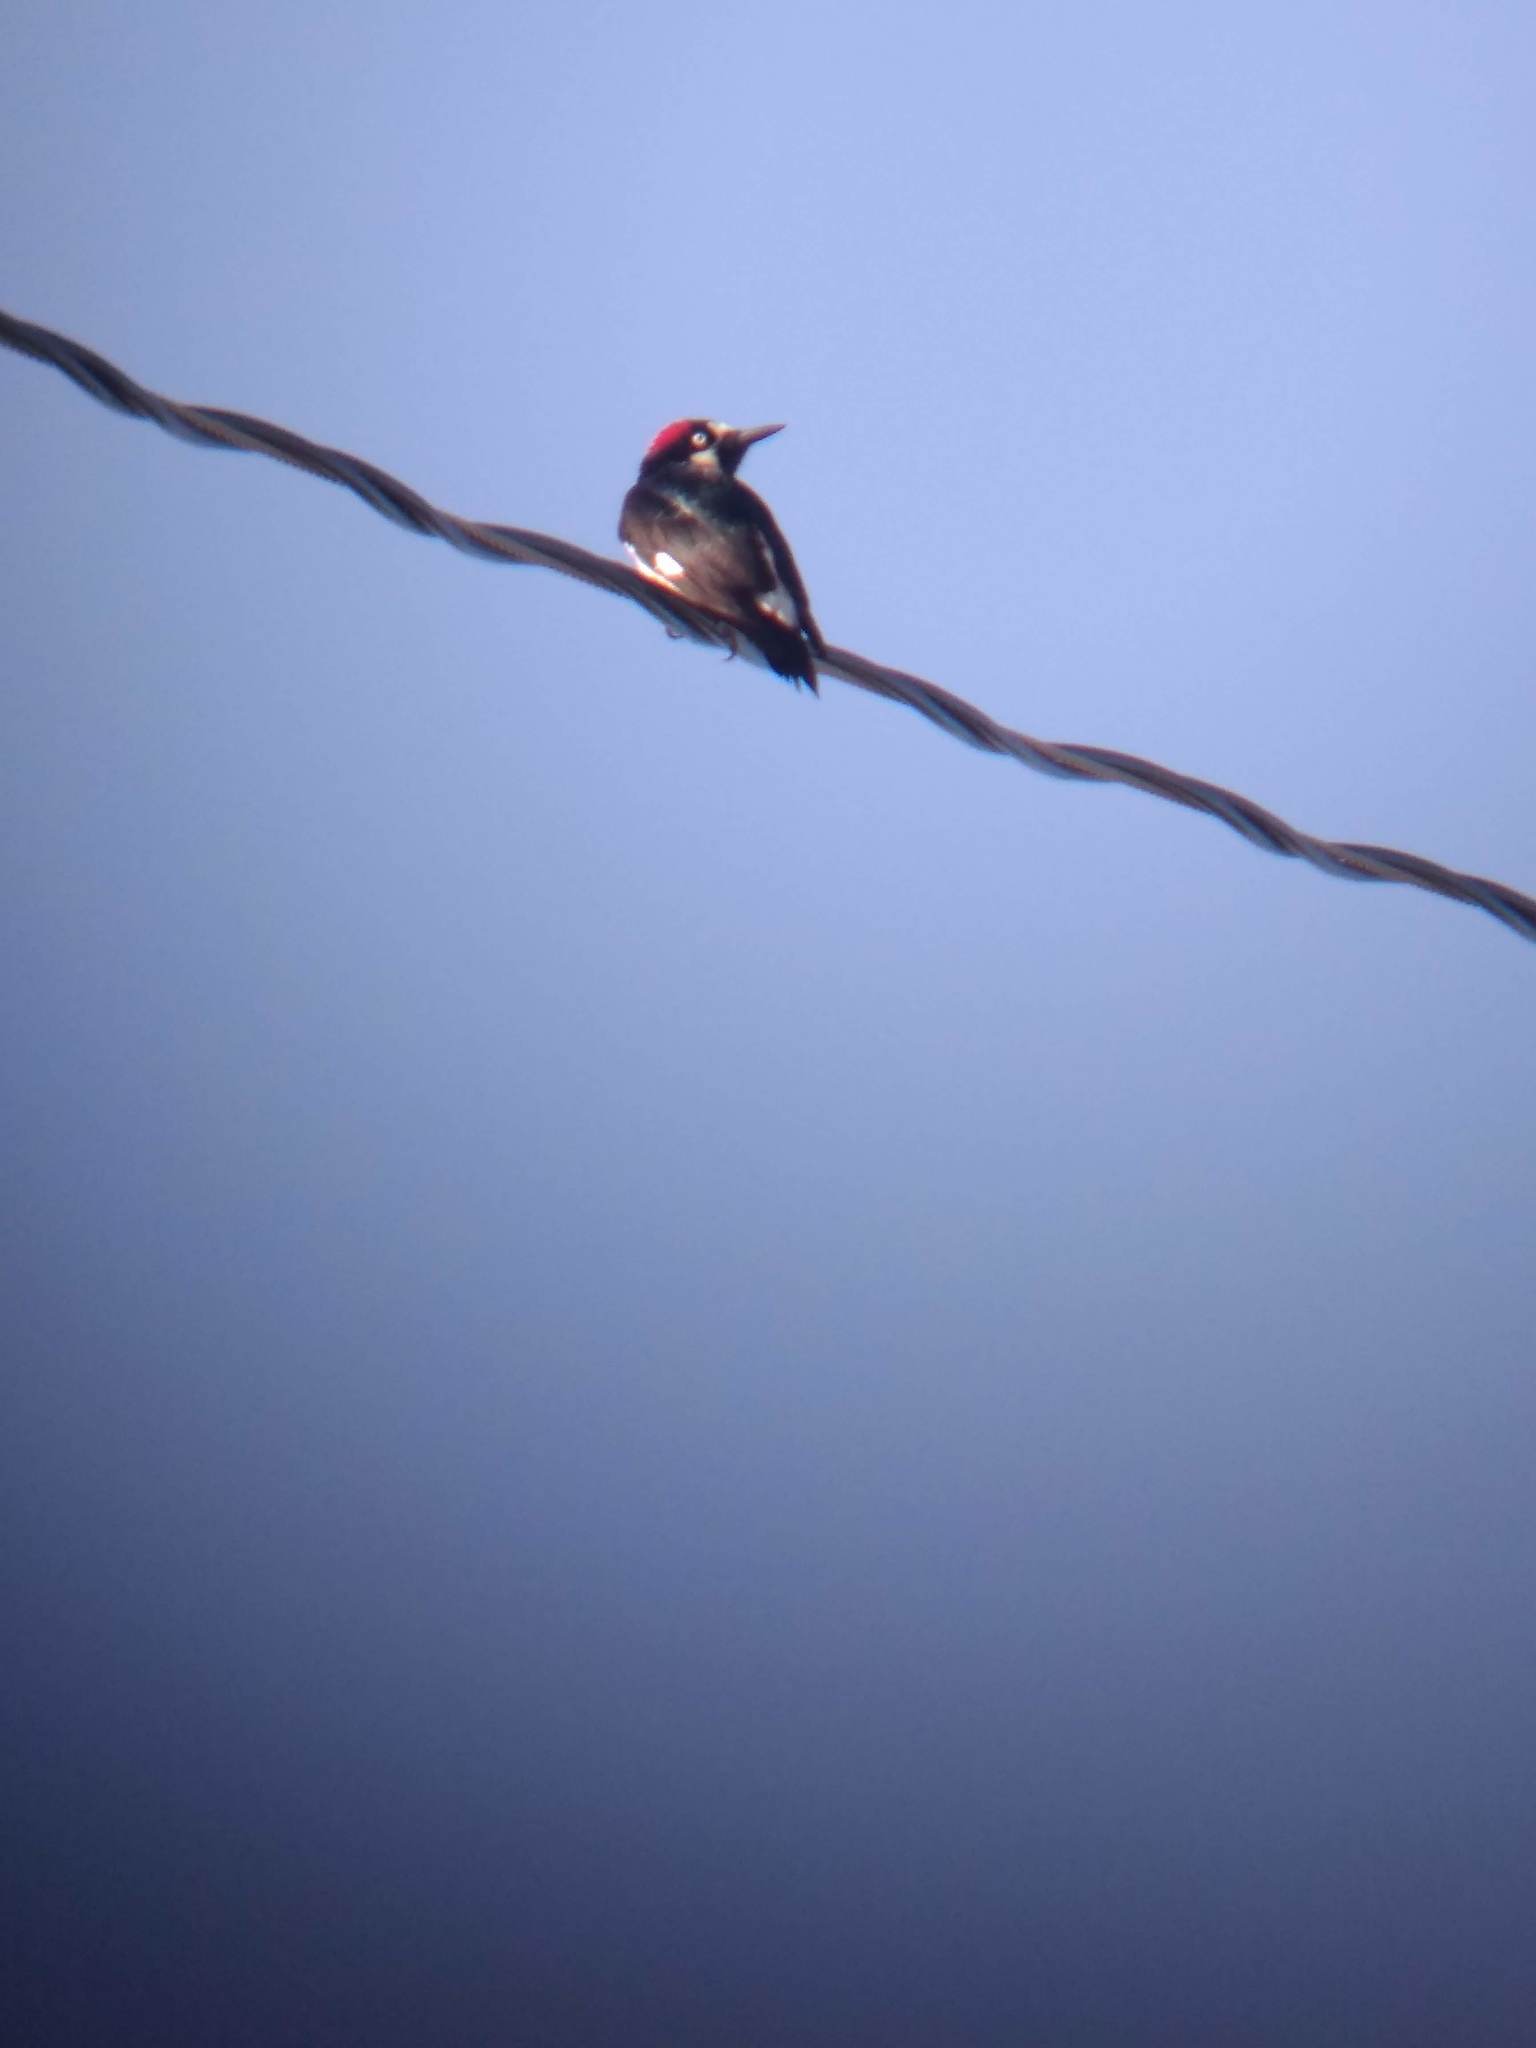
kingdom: Animalia
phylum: Chordata
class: Aves
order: Piciformes
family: Picidae
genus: Melanerpes
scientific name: Melanerpes formicivorus
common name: Acorn woodpecker
